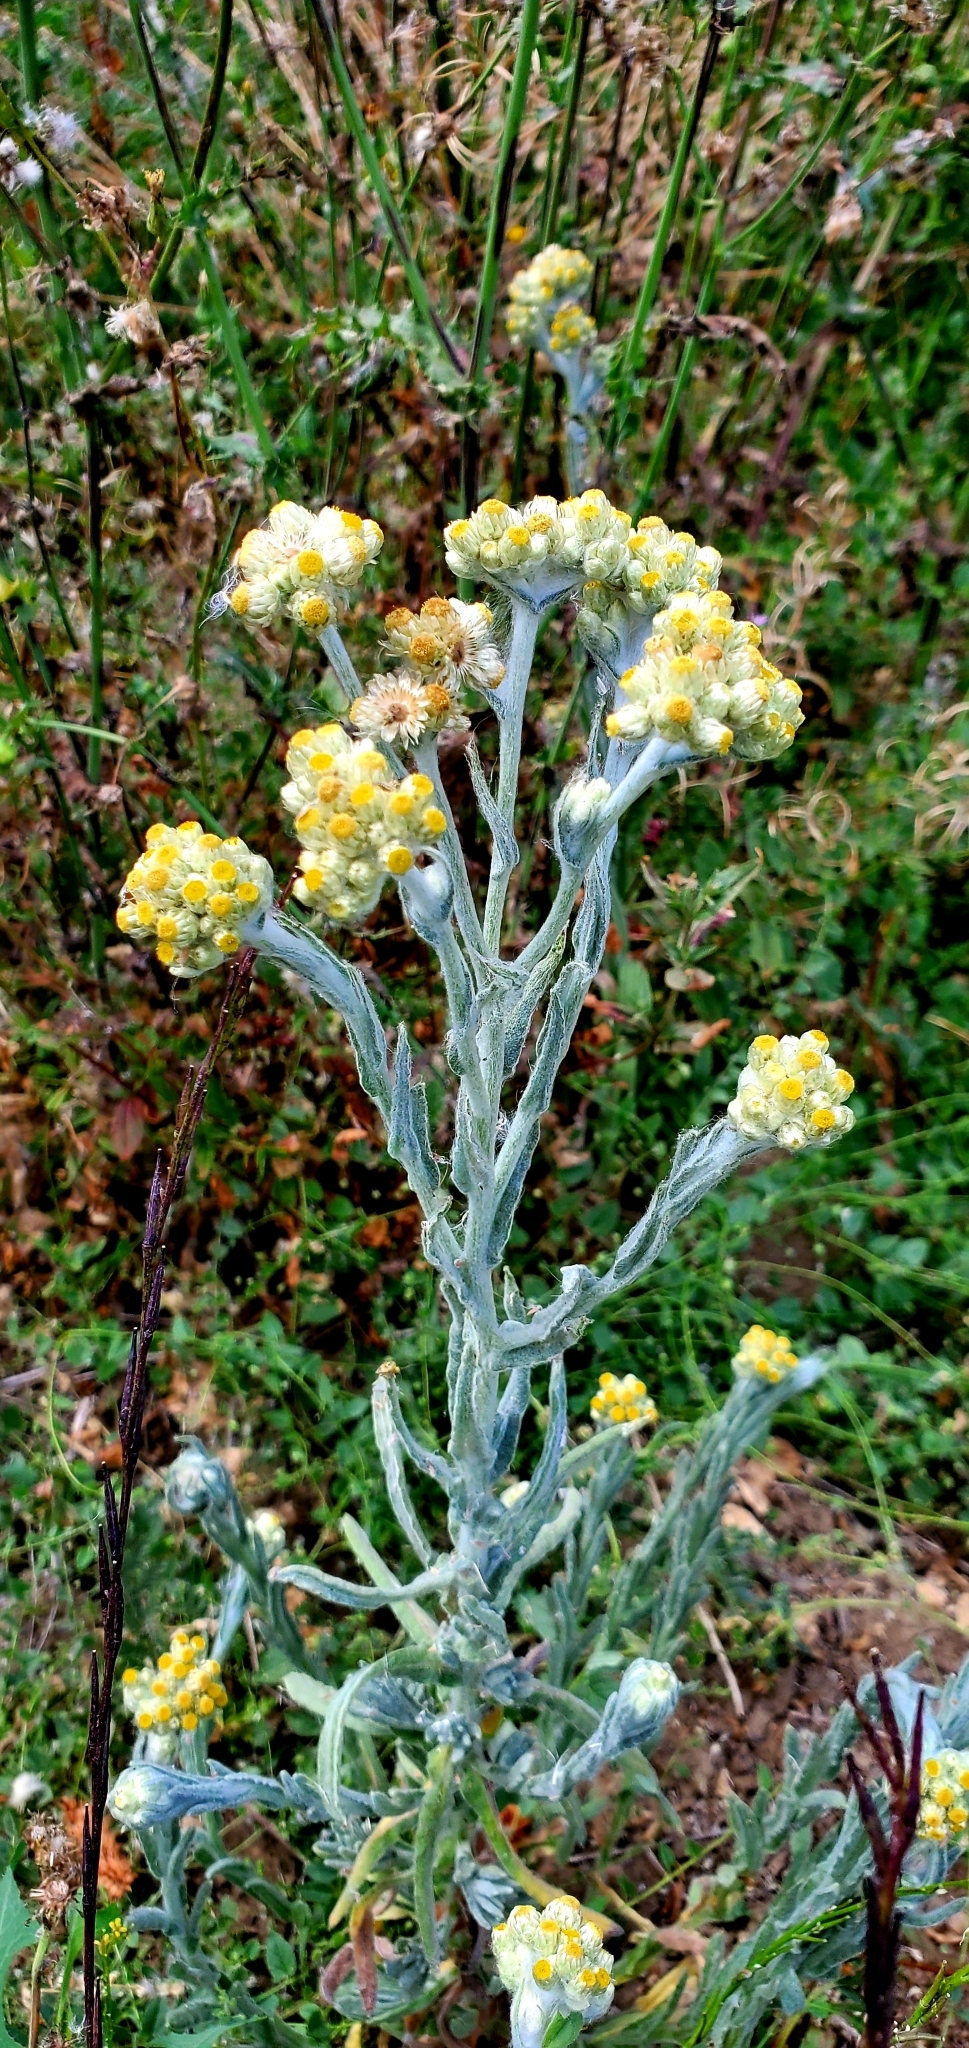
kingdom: Plantae
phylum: Tracheophyta
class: Magnoliopsida
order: Asterales
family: Asteraceae
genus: Pseudognaphalium
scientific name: Pseudognaphalium stramineum
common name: Cotton-batting-plant
